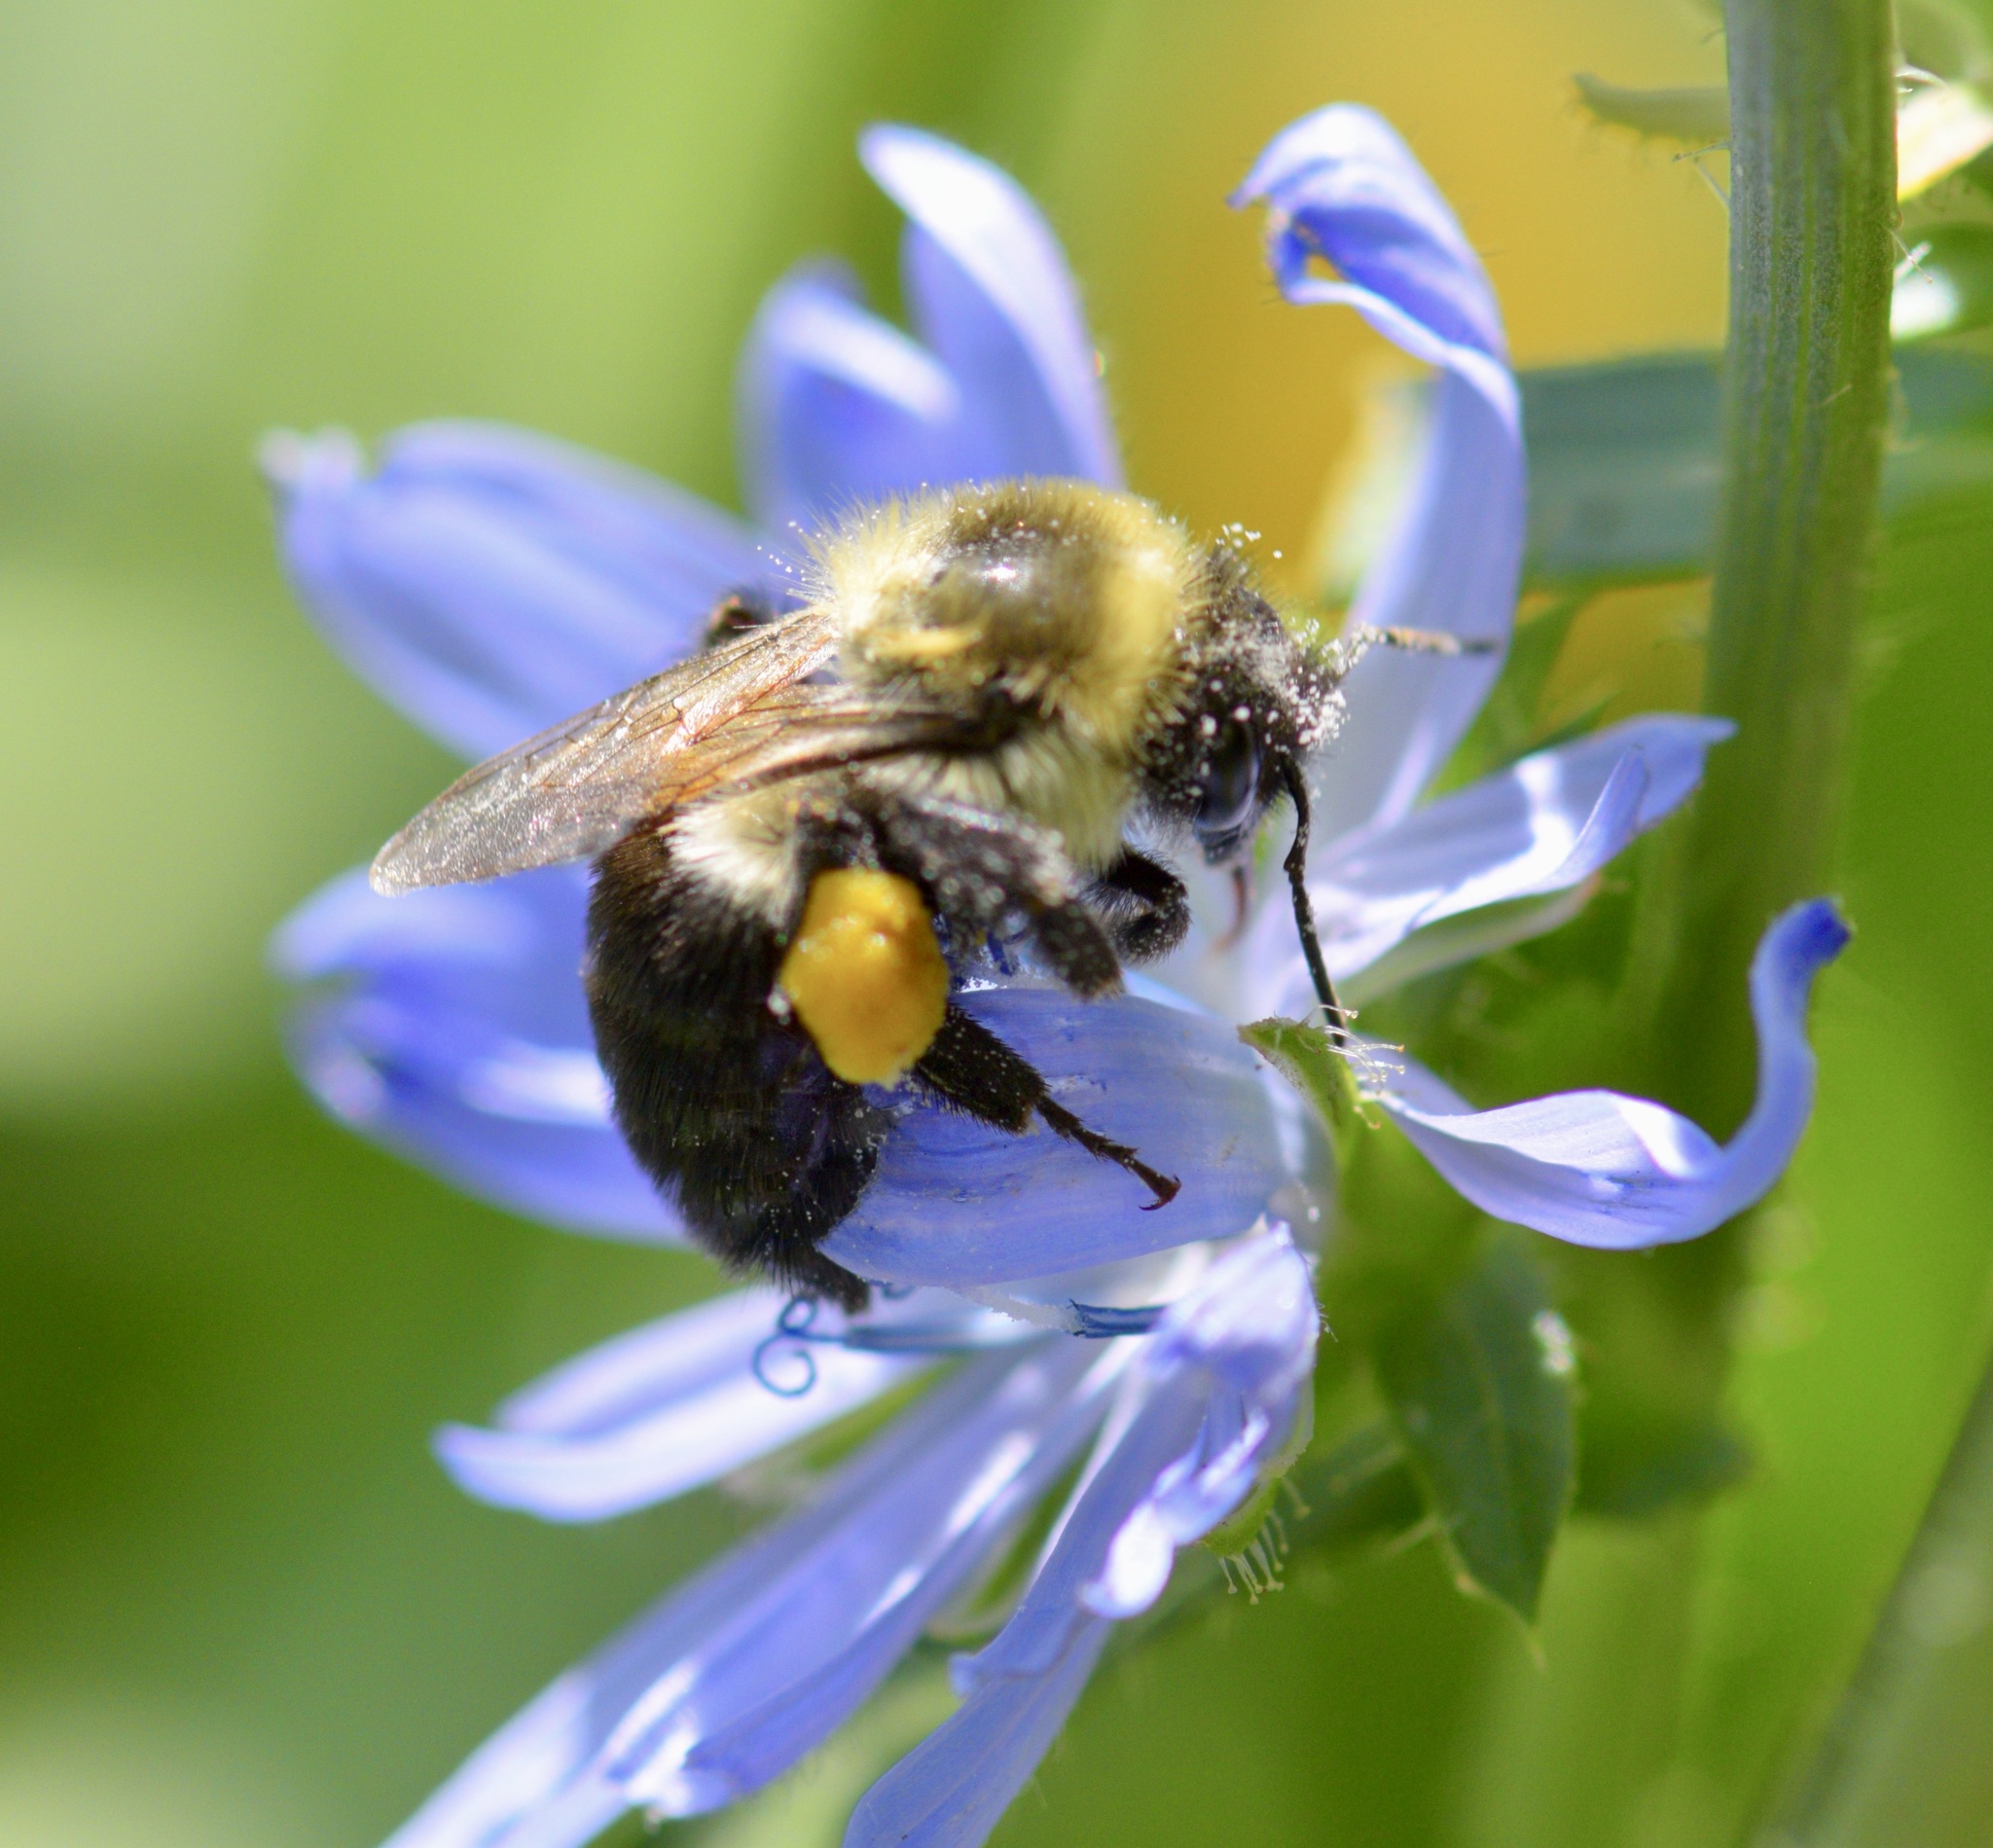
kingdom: Animalia
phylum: Arthropoda
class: Insecta
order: Hymenoptera
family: Apidae
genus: Bombus
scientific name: Bombus impatiens
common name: Common eastern bumble bee
